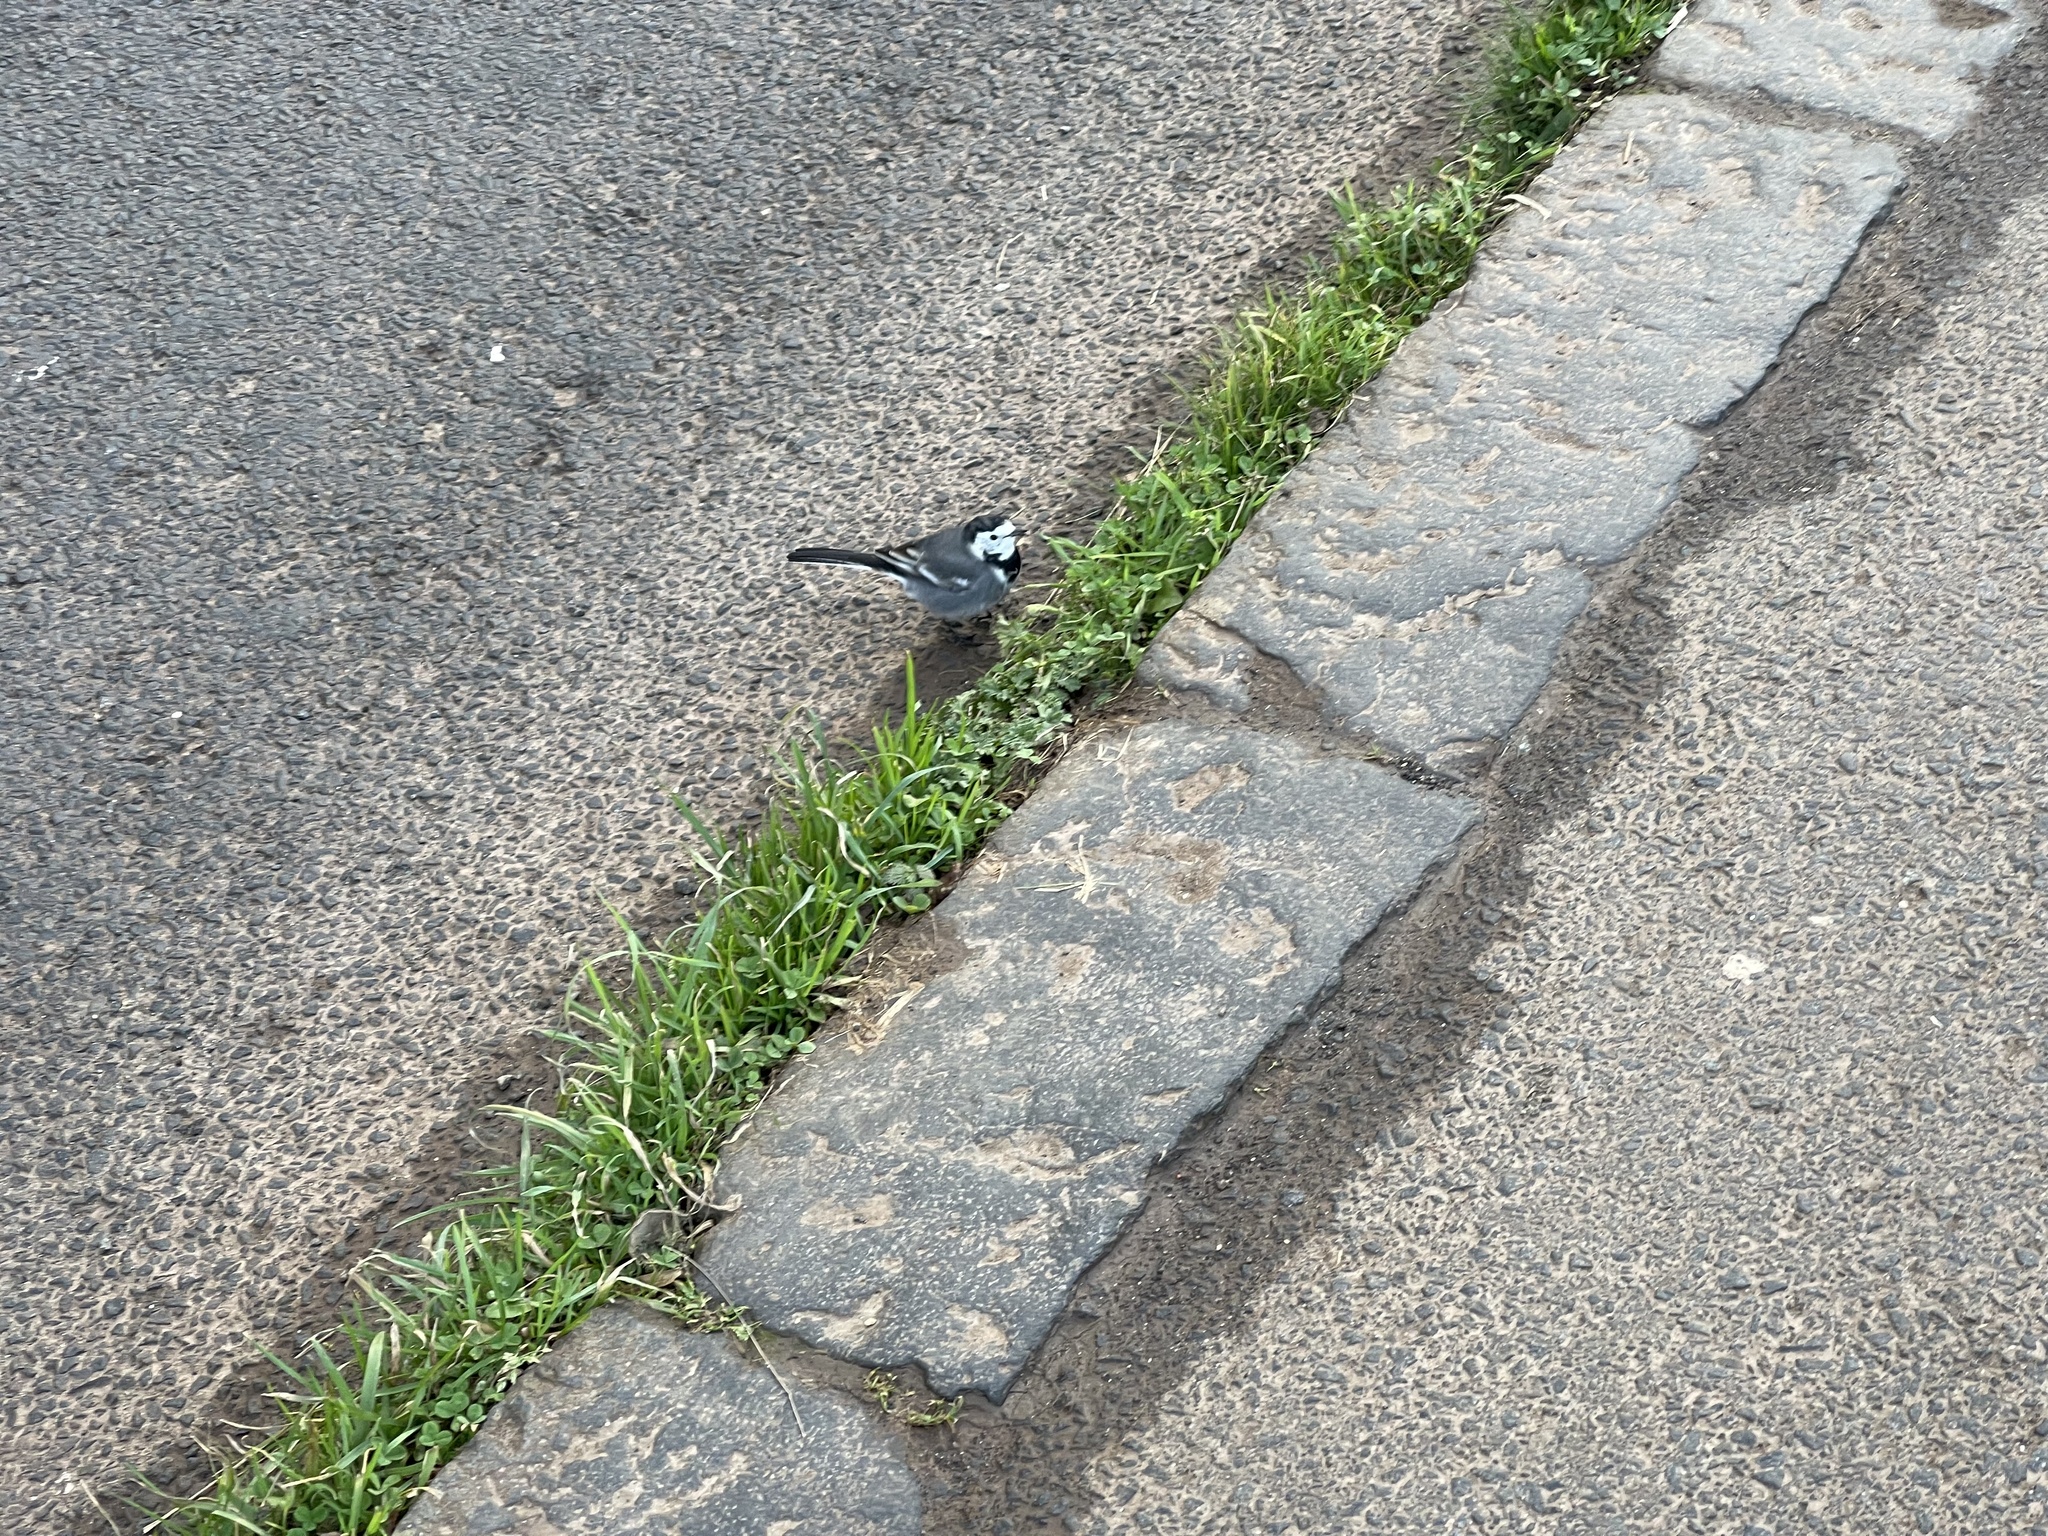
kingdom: Animalia
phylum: Chordata
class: Aves
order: Passeriformes
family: Motacillidae
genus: Motacilla
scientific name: Motacilla alba
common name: White wagtail
